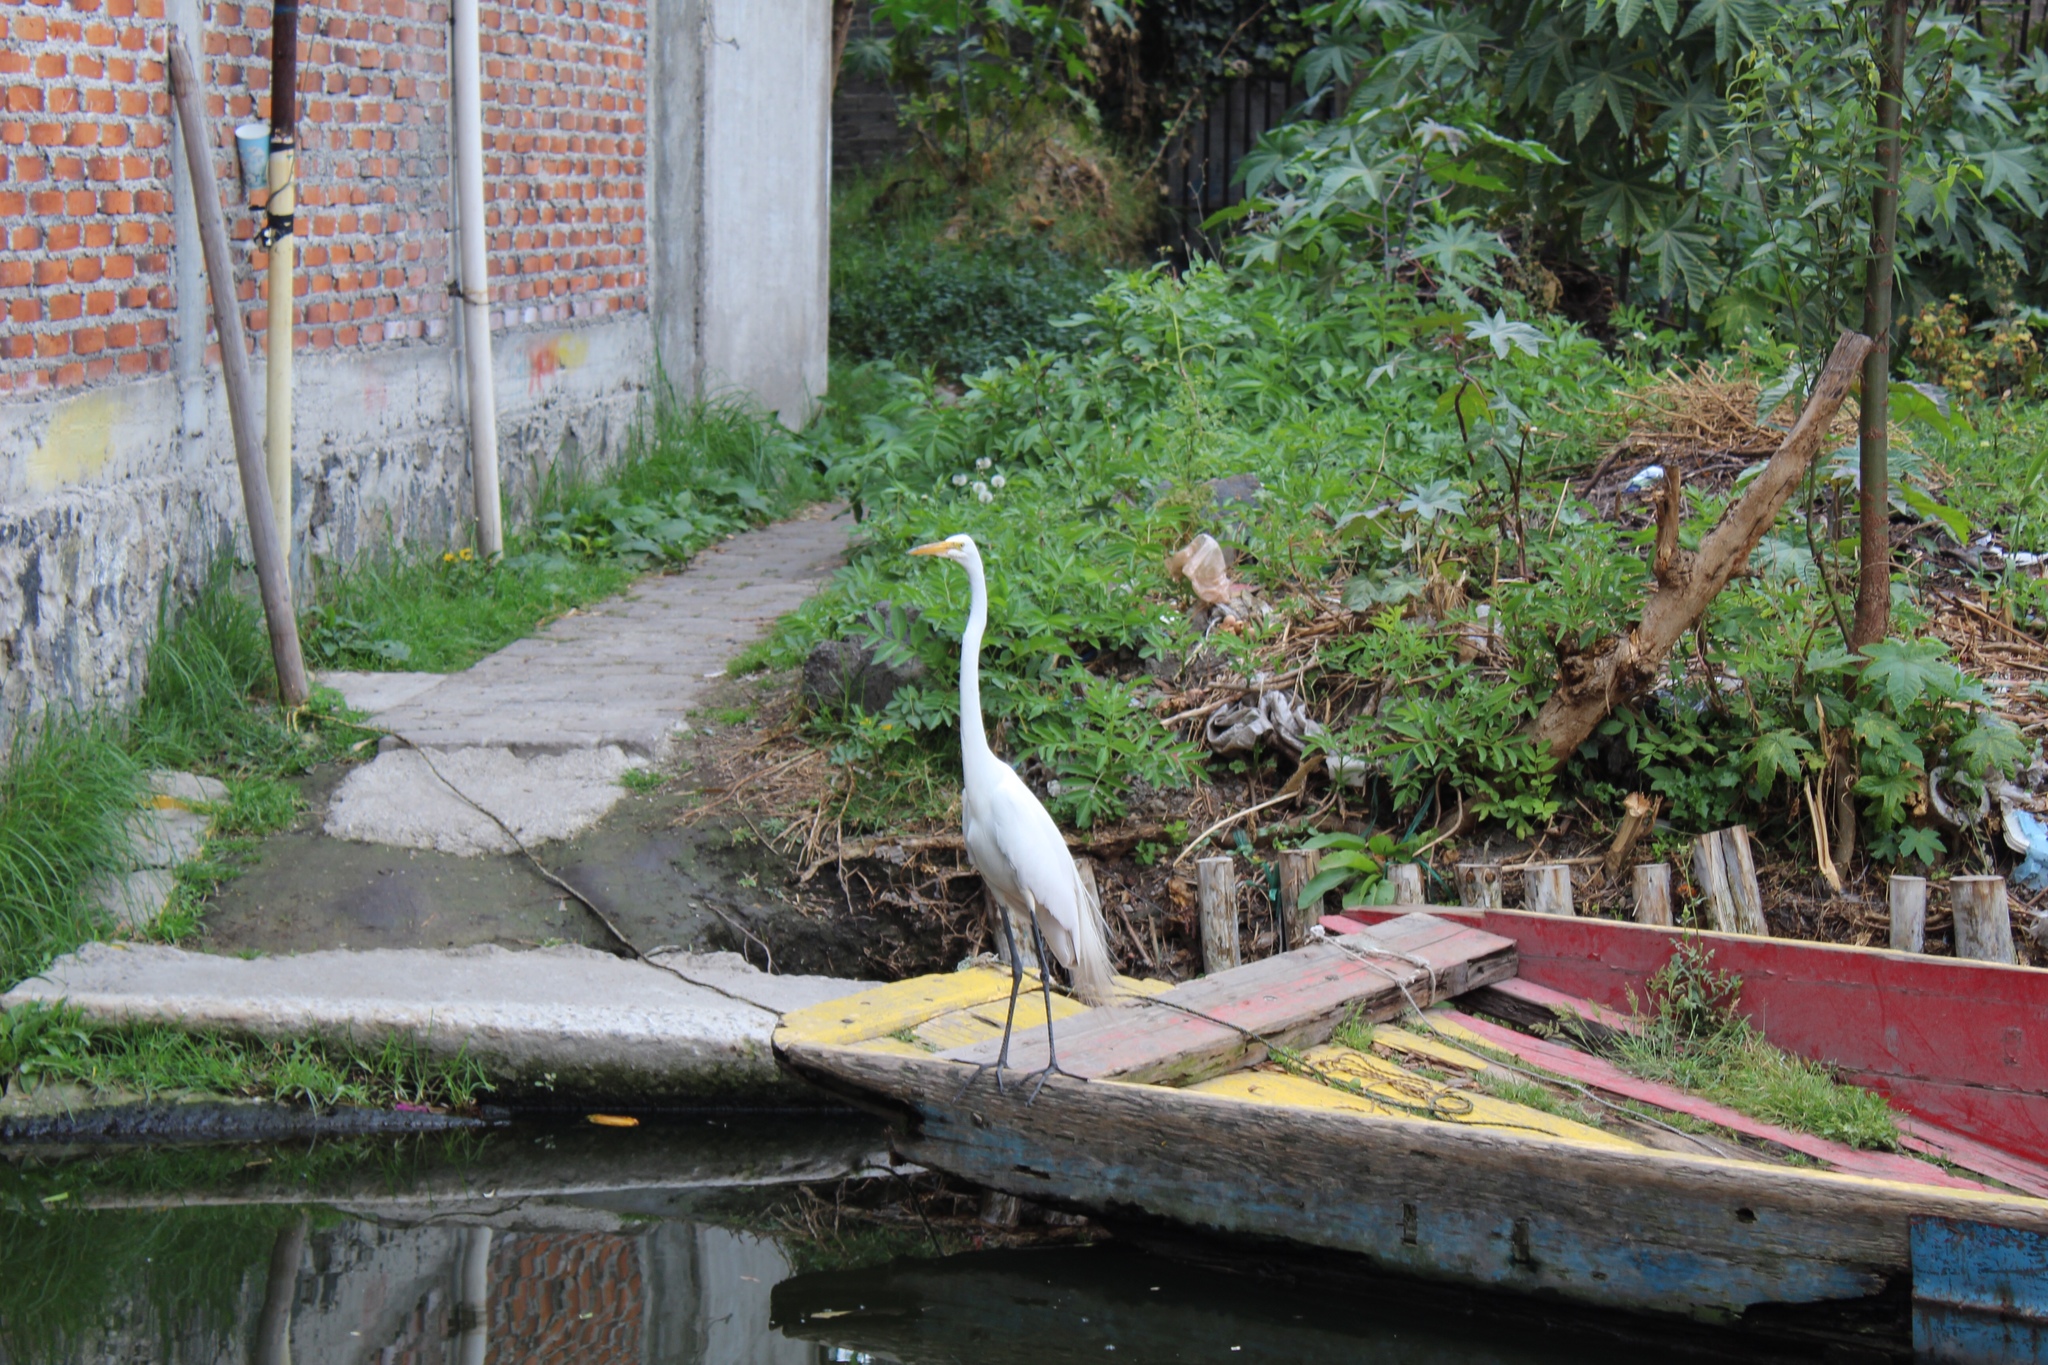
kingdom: Animalia
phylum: Chordata
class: Aves
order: Pelecaniformes
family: Ardeidae
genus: Ardea
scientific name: Ardea alba
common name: Great egret
